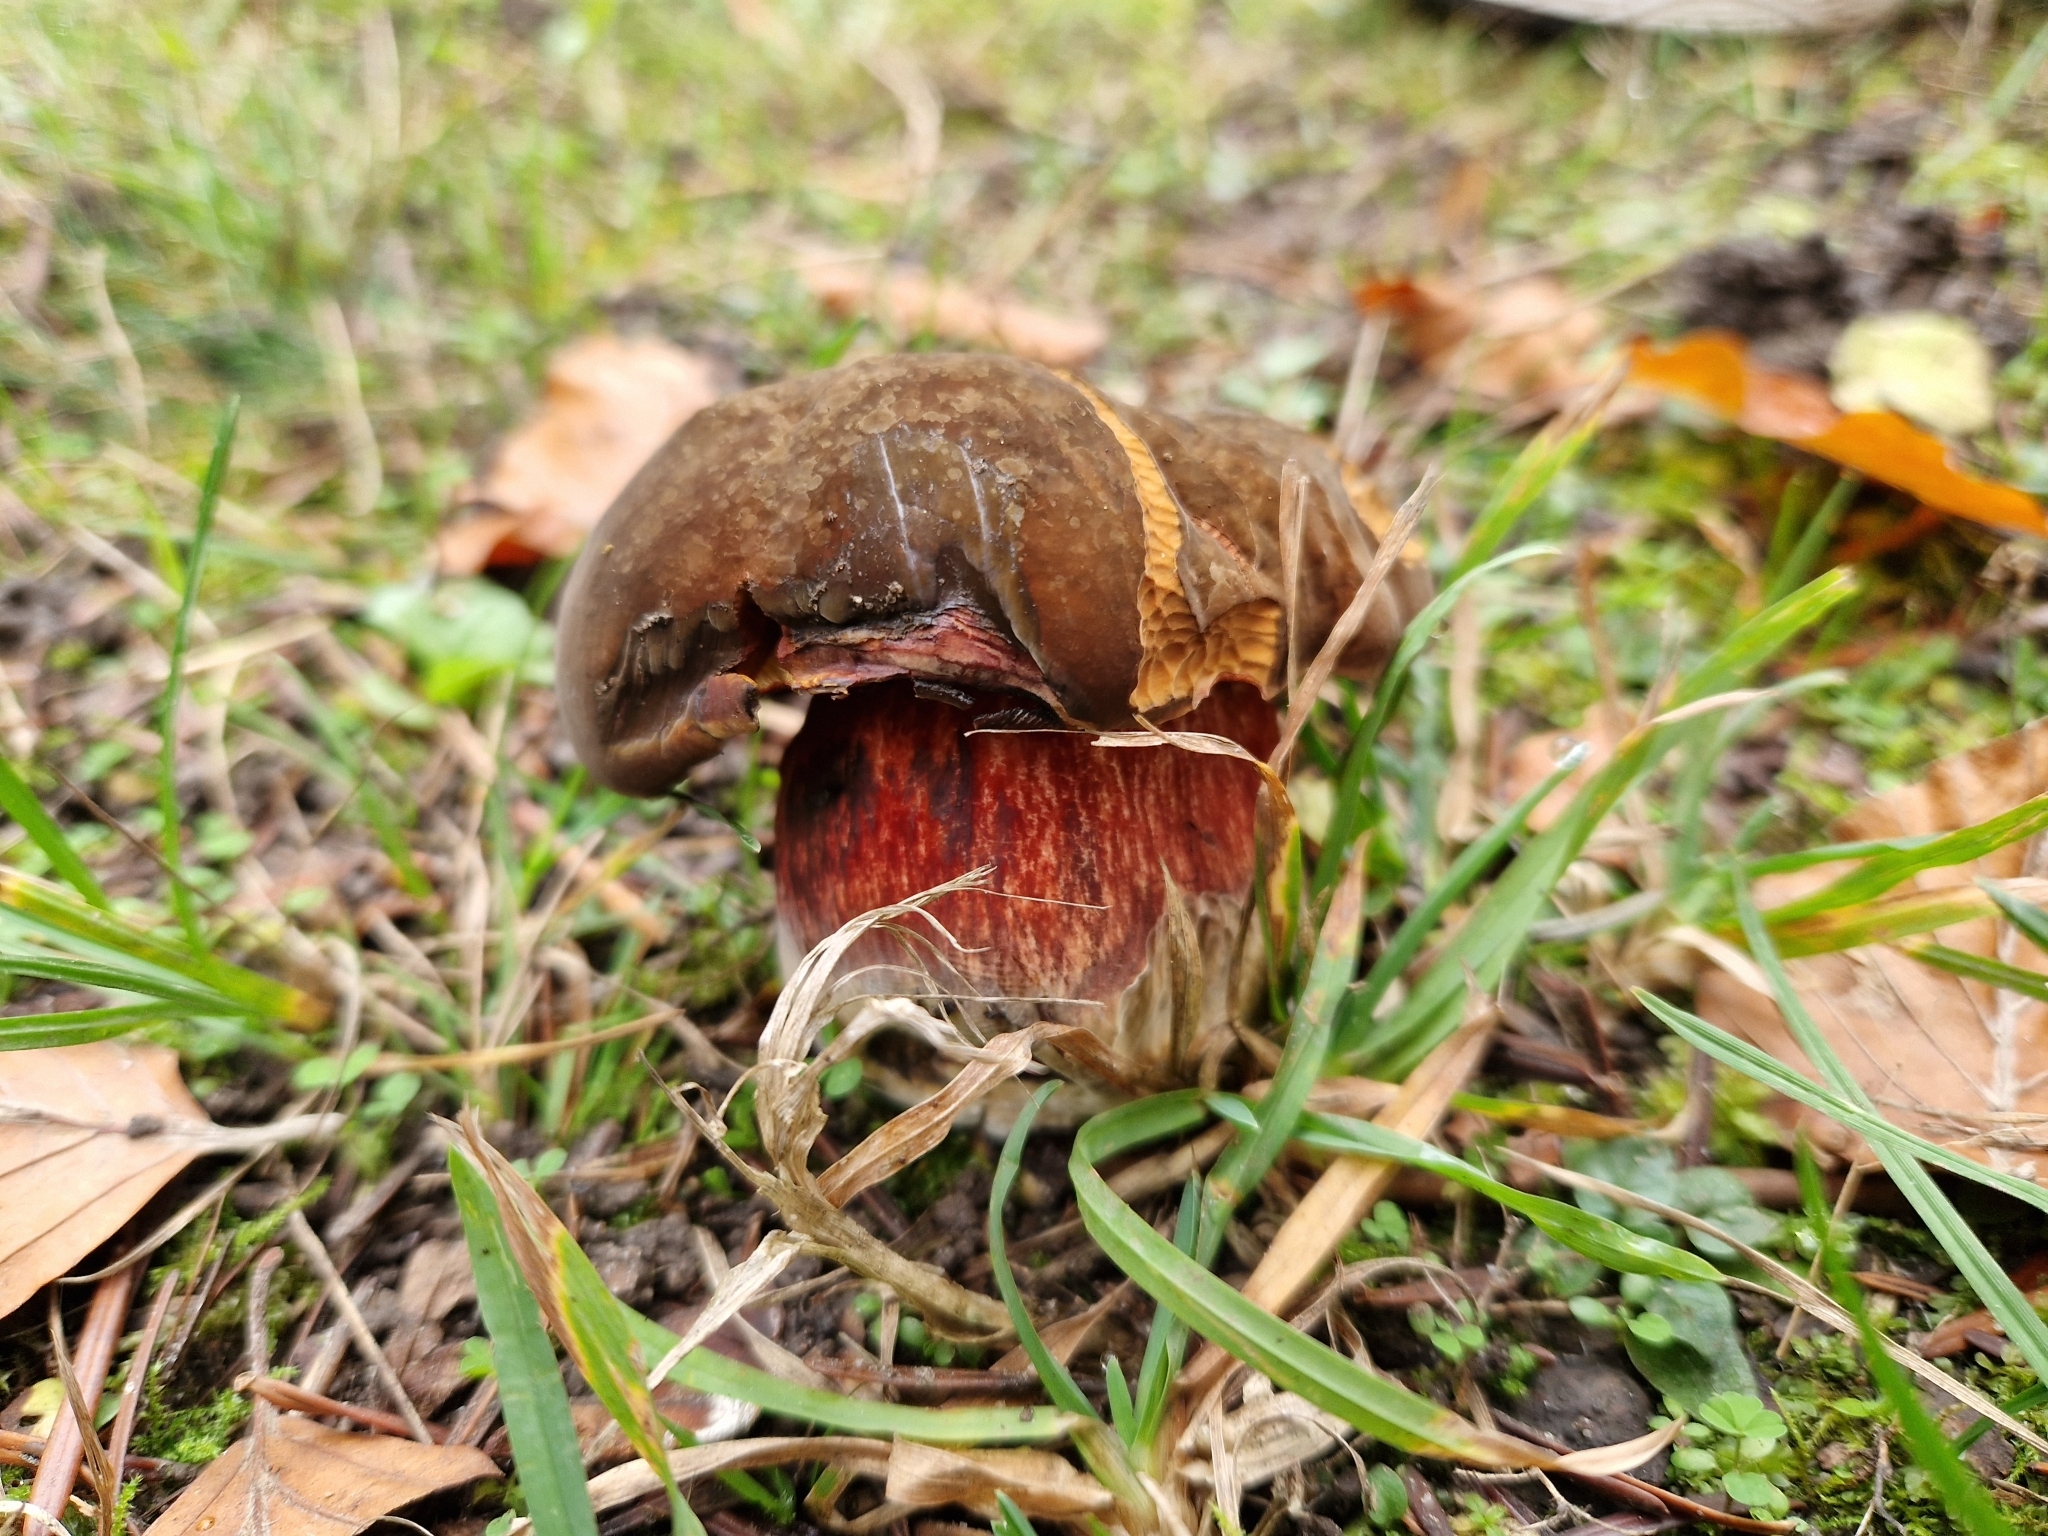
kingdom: Fungi
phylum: Basidiomycota
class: Agaricomycetes
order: Boletales
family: Boletaceae
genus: Neoboletus
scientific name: Neoboletus erythropus
